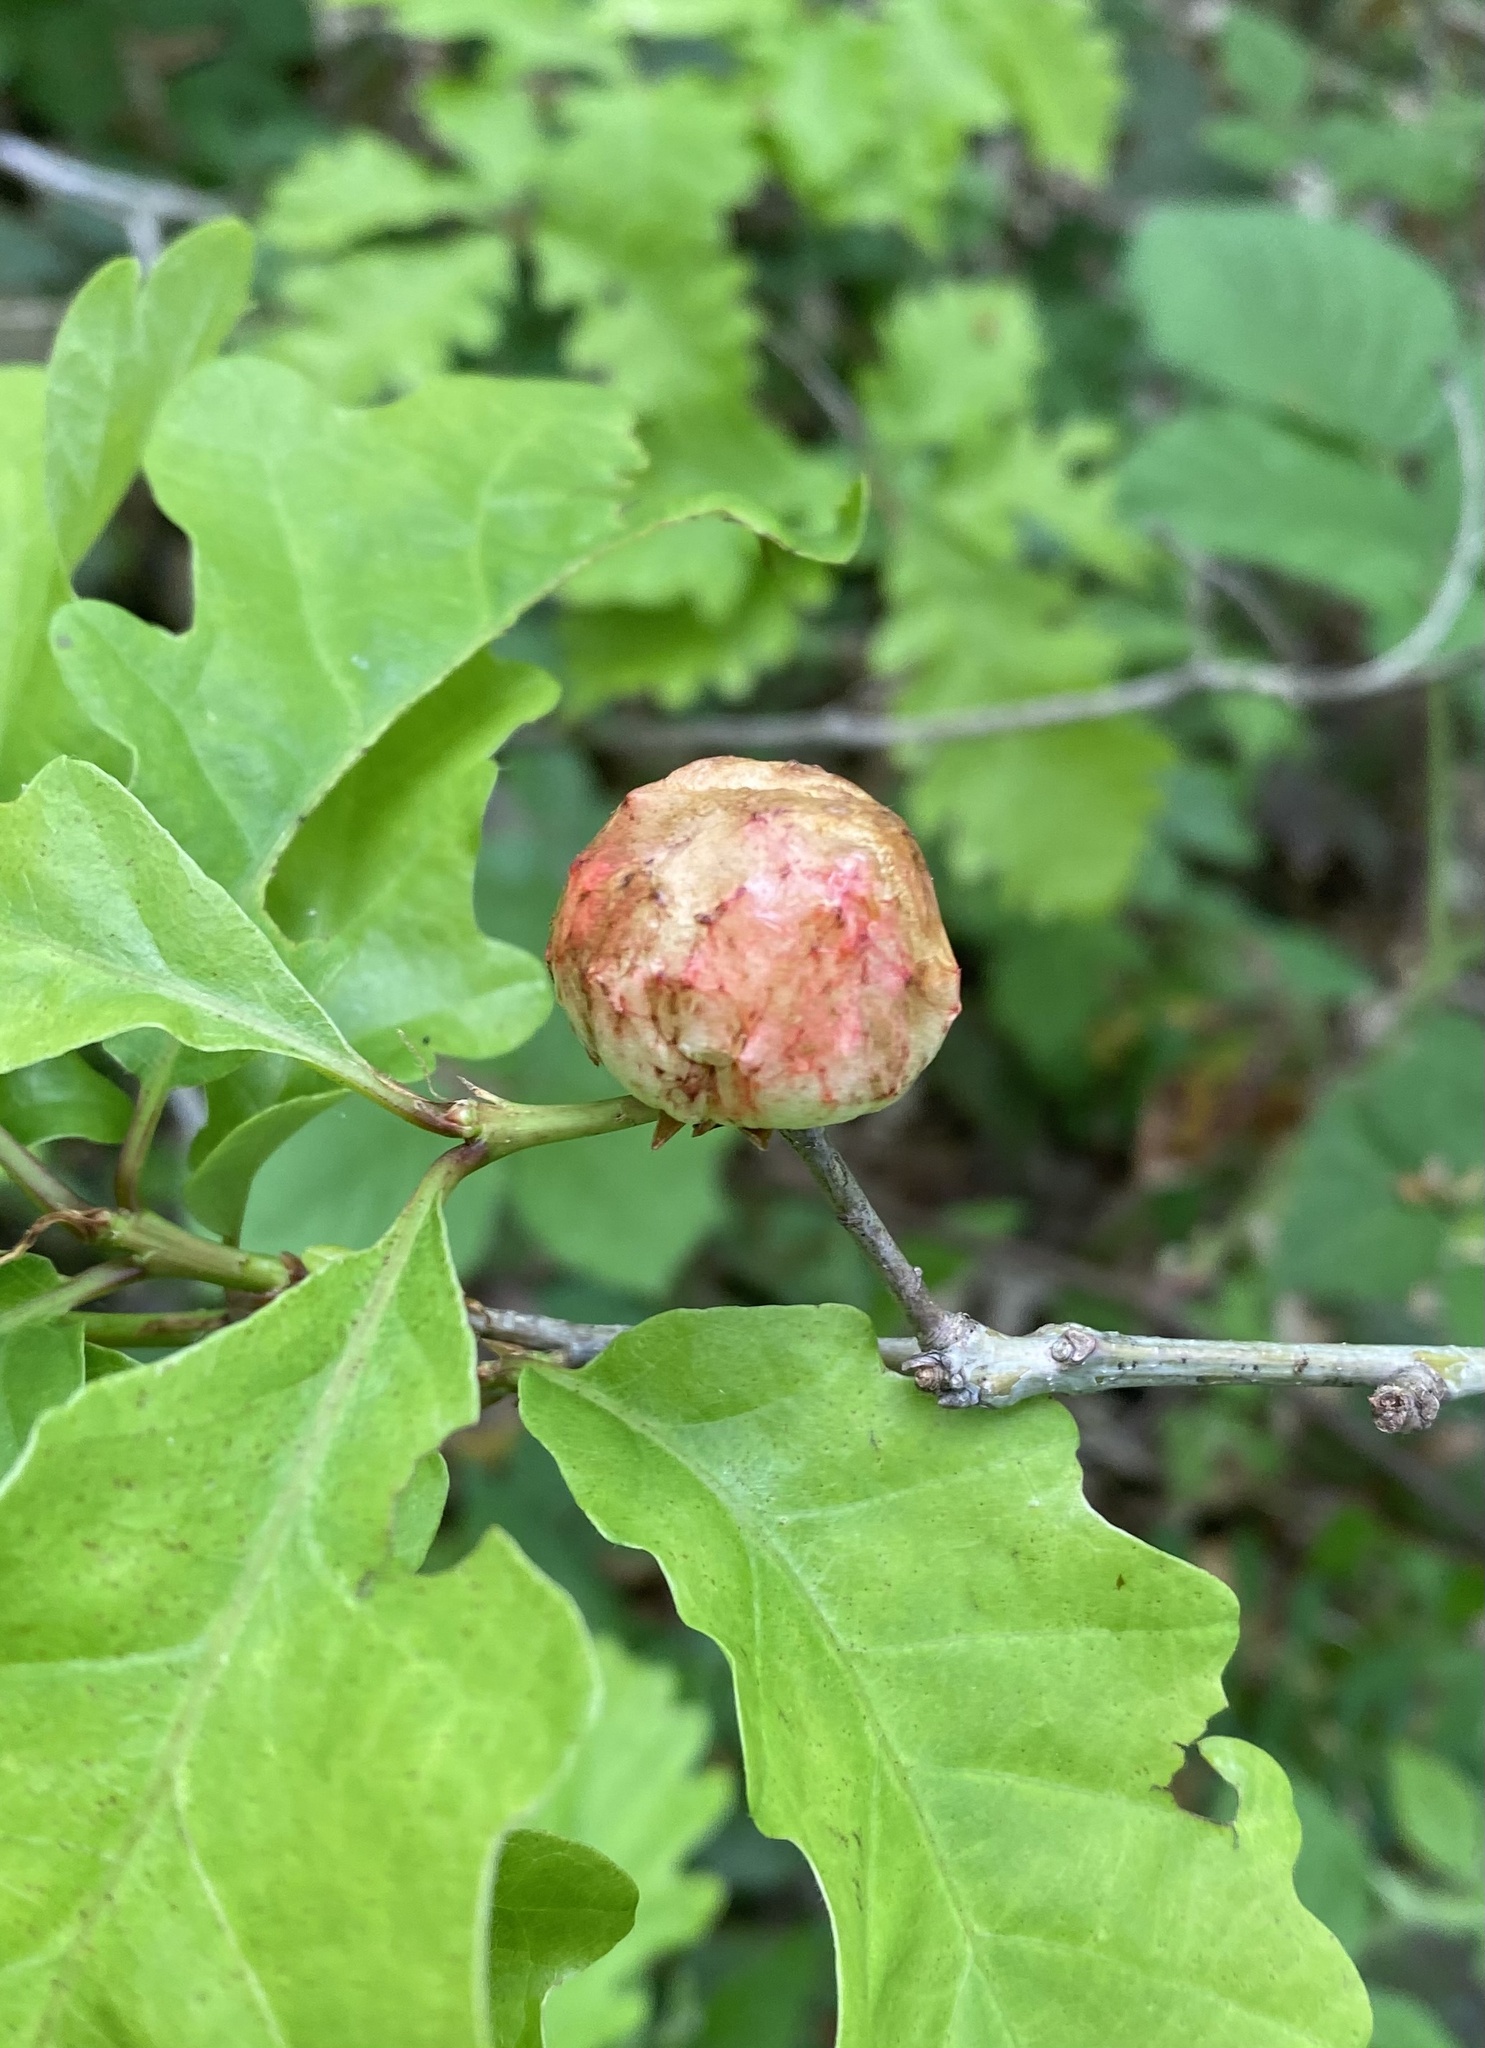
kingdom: Animalia
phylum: Arthropoda
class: Insecta
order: Hymenoptera
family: Cynipidae
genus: Biorhiza
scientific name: Biorhiza pallida
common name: Oak apple
